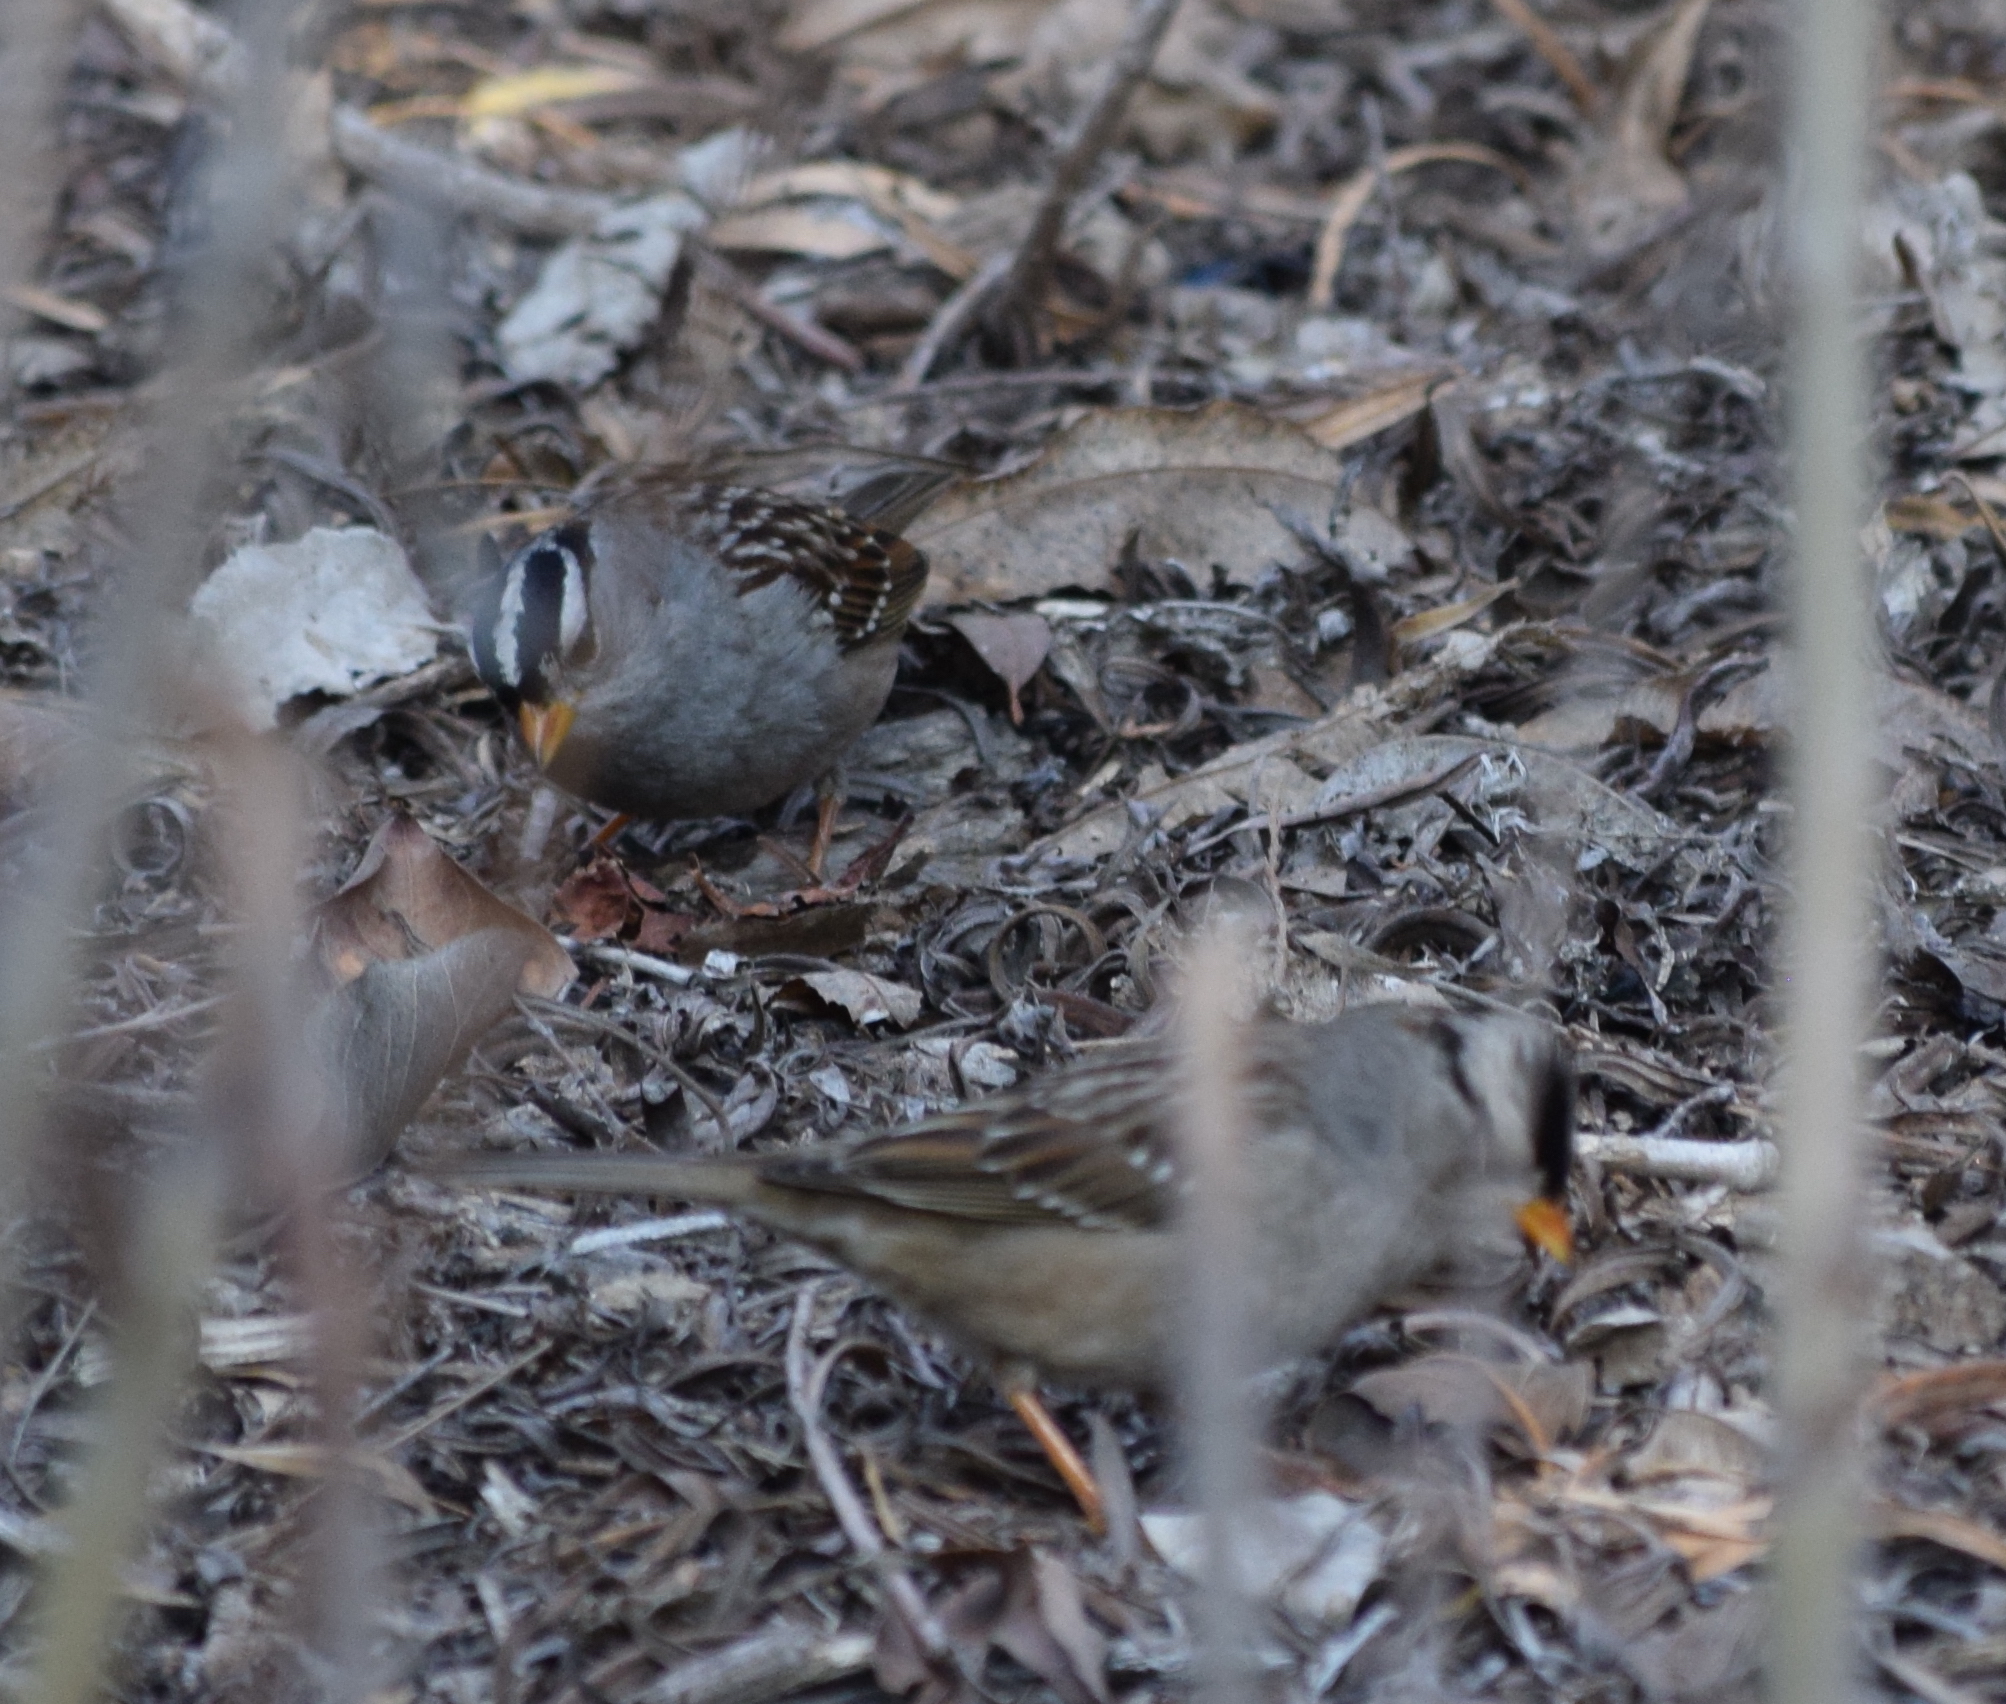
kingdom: Animalia
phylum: Chordata
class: Aves
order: Passeriformes
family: Passerellidae
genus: Zonotrichia
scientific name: Zonotrichia leucophrys
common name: White-crowned sparrow
